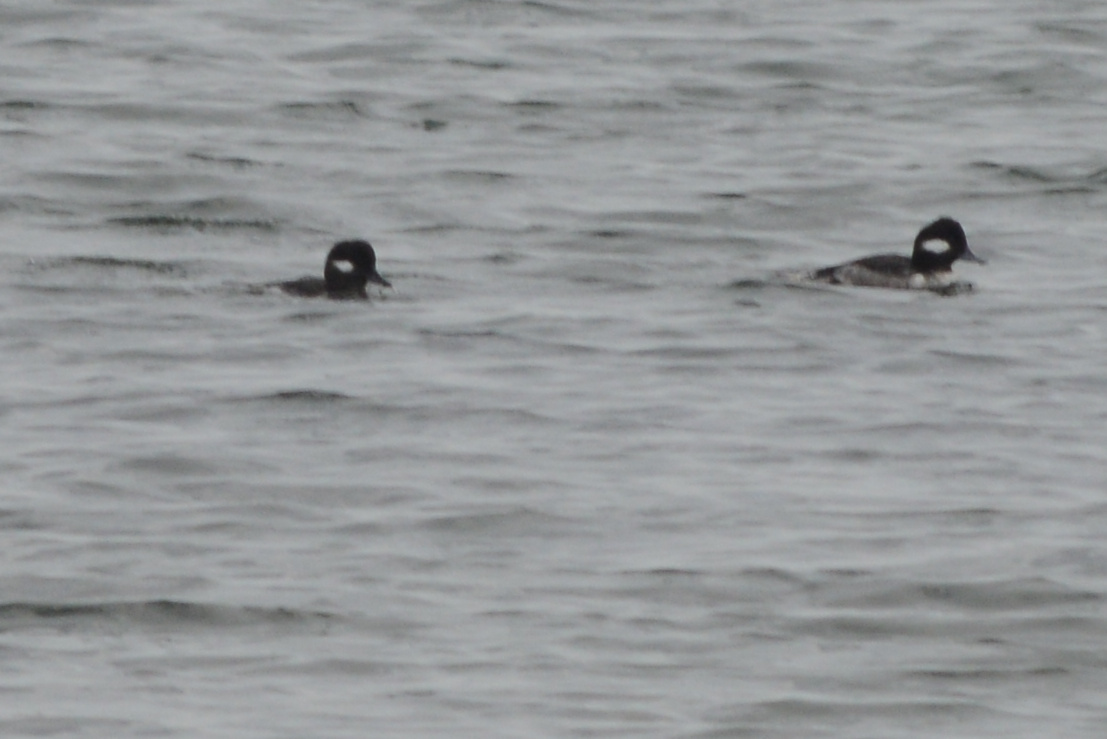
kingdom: Animalia
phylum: Chordata
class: Aves
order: Anseriformes
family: Anatidae
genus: Bucephala
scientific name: Bucephala albeola
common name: Bufflehead
